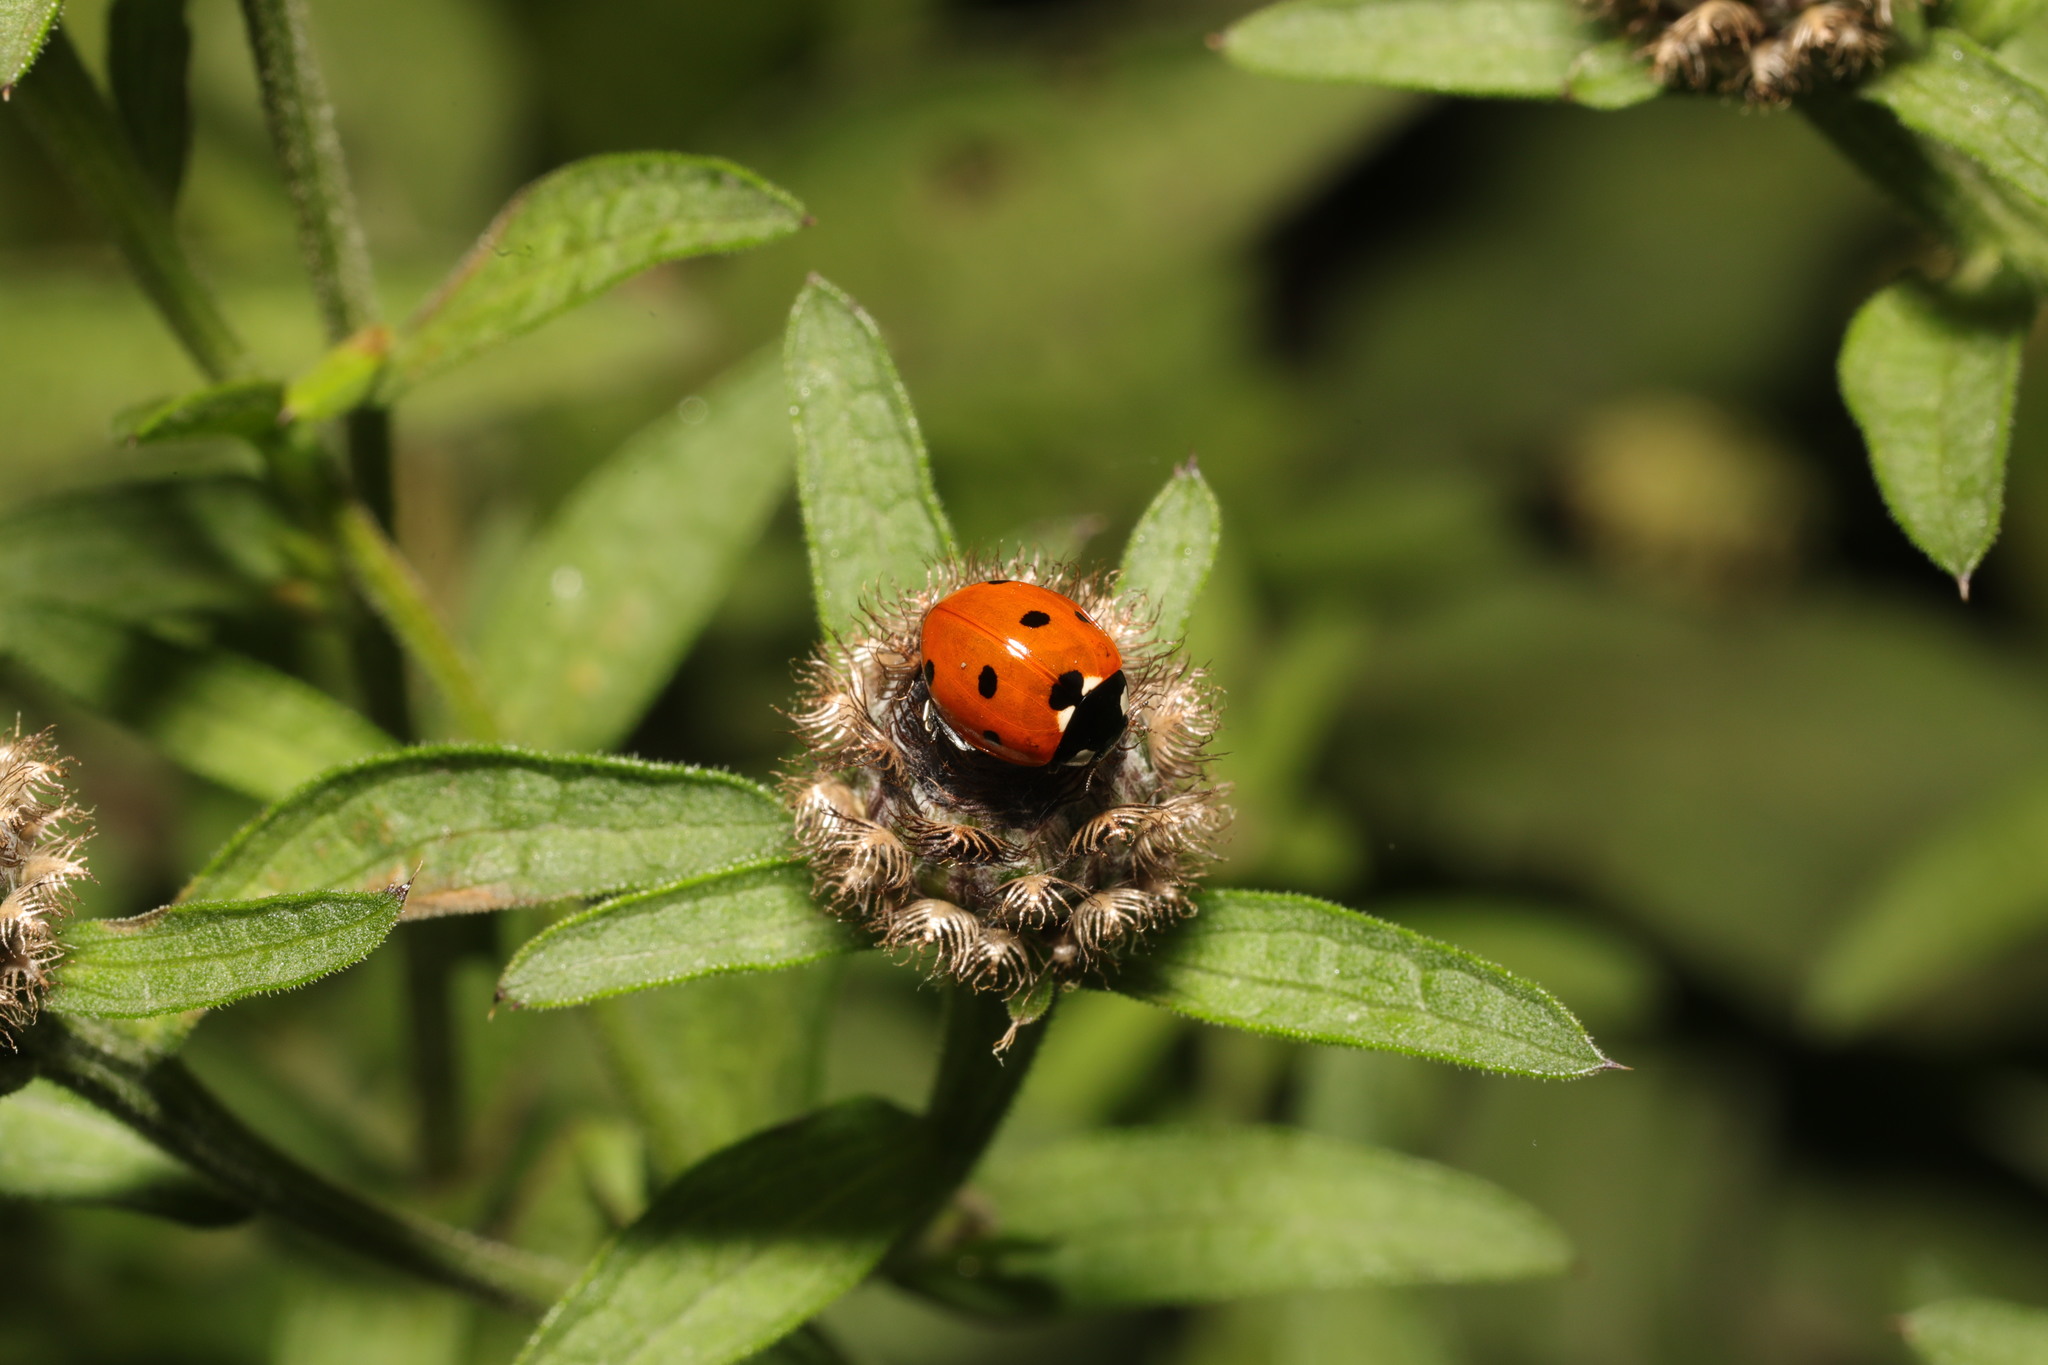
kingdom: Animalia
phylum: Arthropoda
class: Insecta
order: Coleoptera
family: Coccinellidae
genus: Coccinella
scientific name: Coccinella septempunctata
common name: Sevenspotted lady beetle
